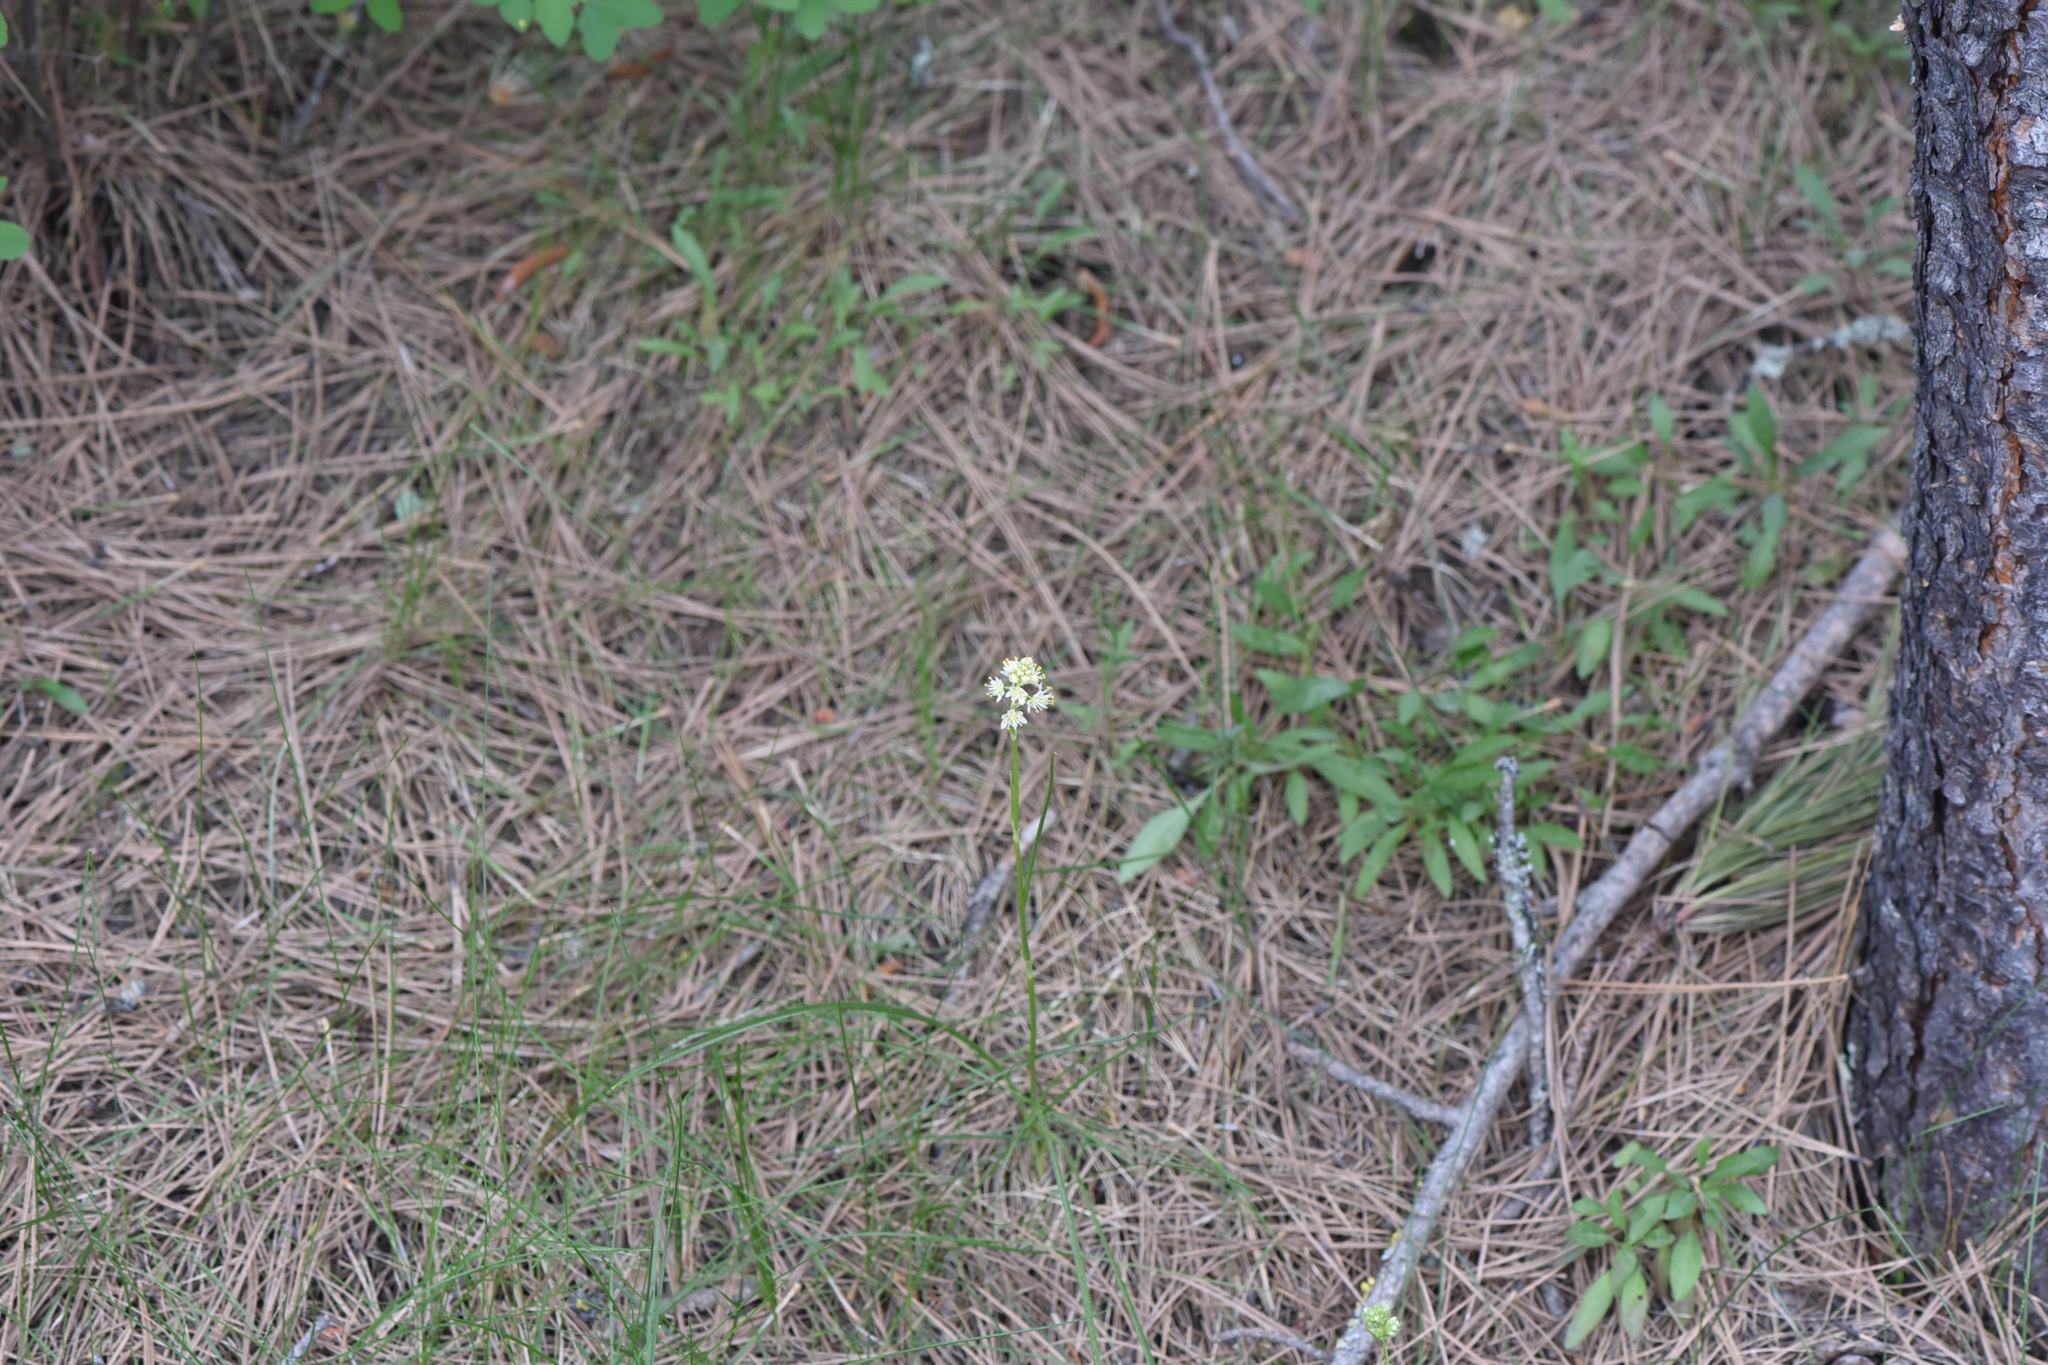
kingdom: Plantae
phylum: Tracheophyta
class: Liliopsida
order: Liliales
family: Melanthiaceae
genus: Toxicoscordion
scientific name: Toxicoscordion venenosum
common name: Meadow death camas
